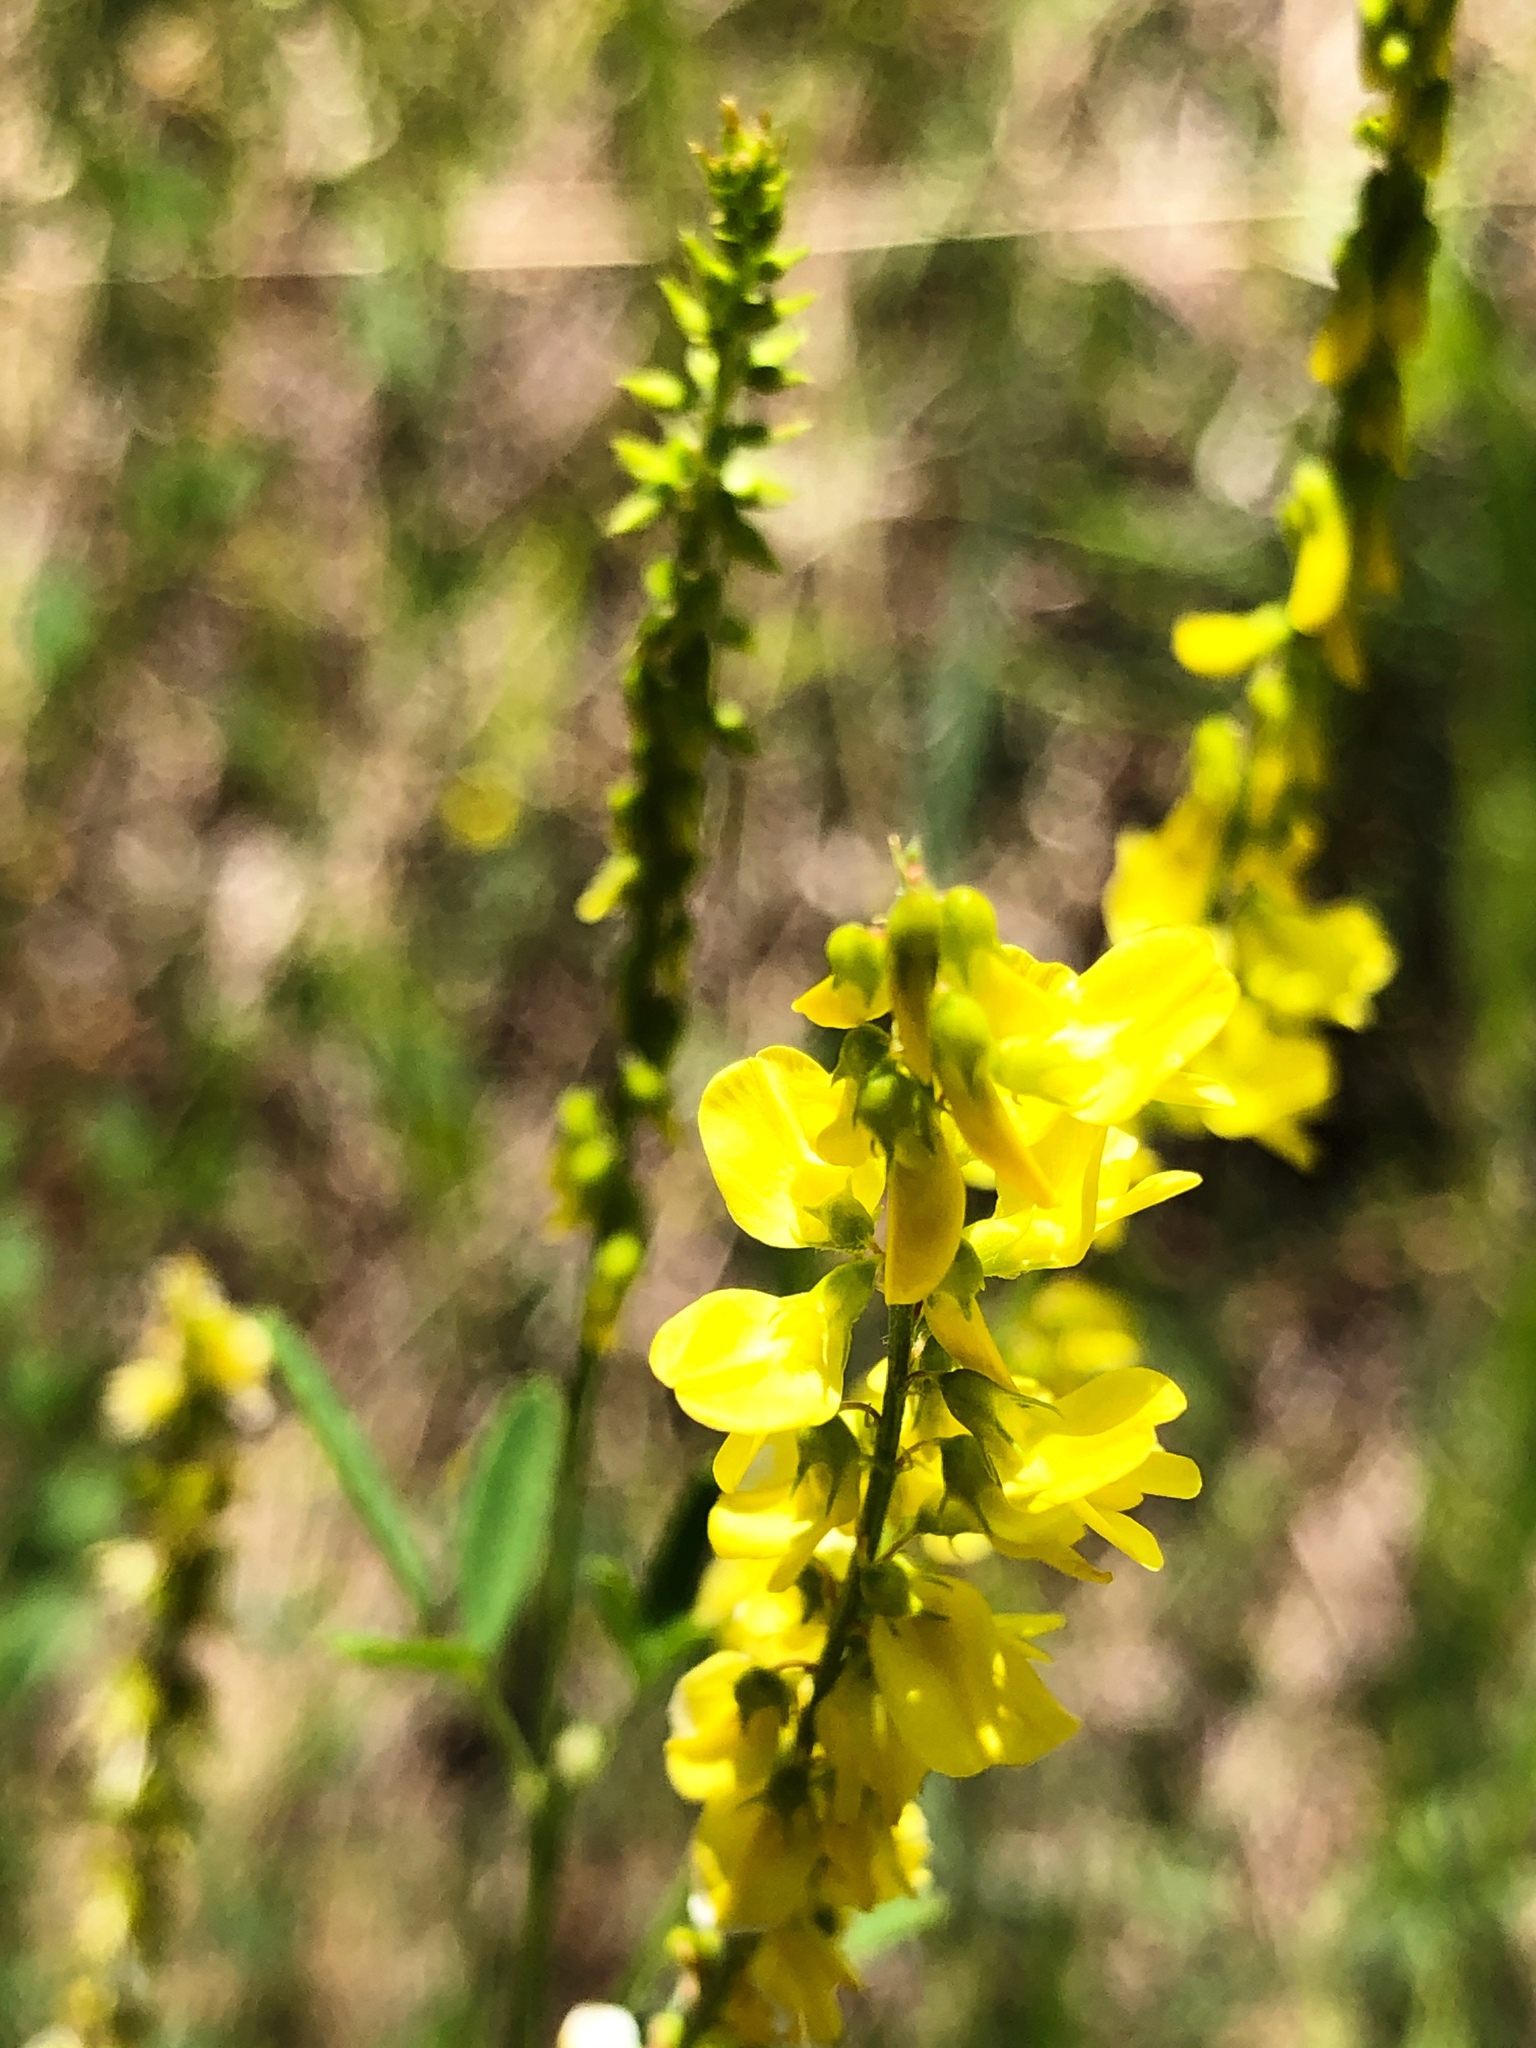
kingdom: Plantae
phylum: Tracheophyta
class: Magnoliopsida
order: Fabales
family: Fabaceae
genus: Melilotus
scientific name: Melilotus officinalis
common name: Sweetclover
